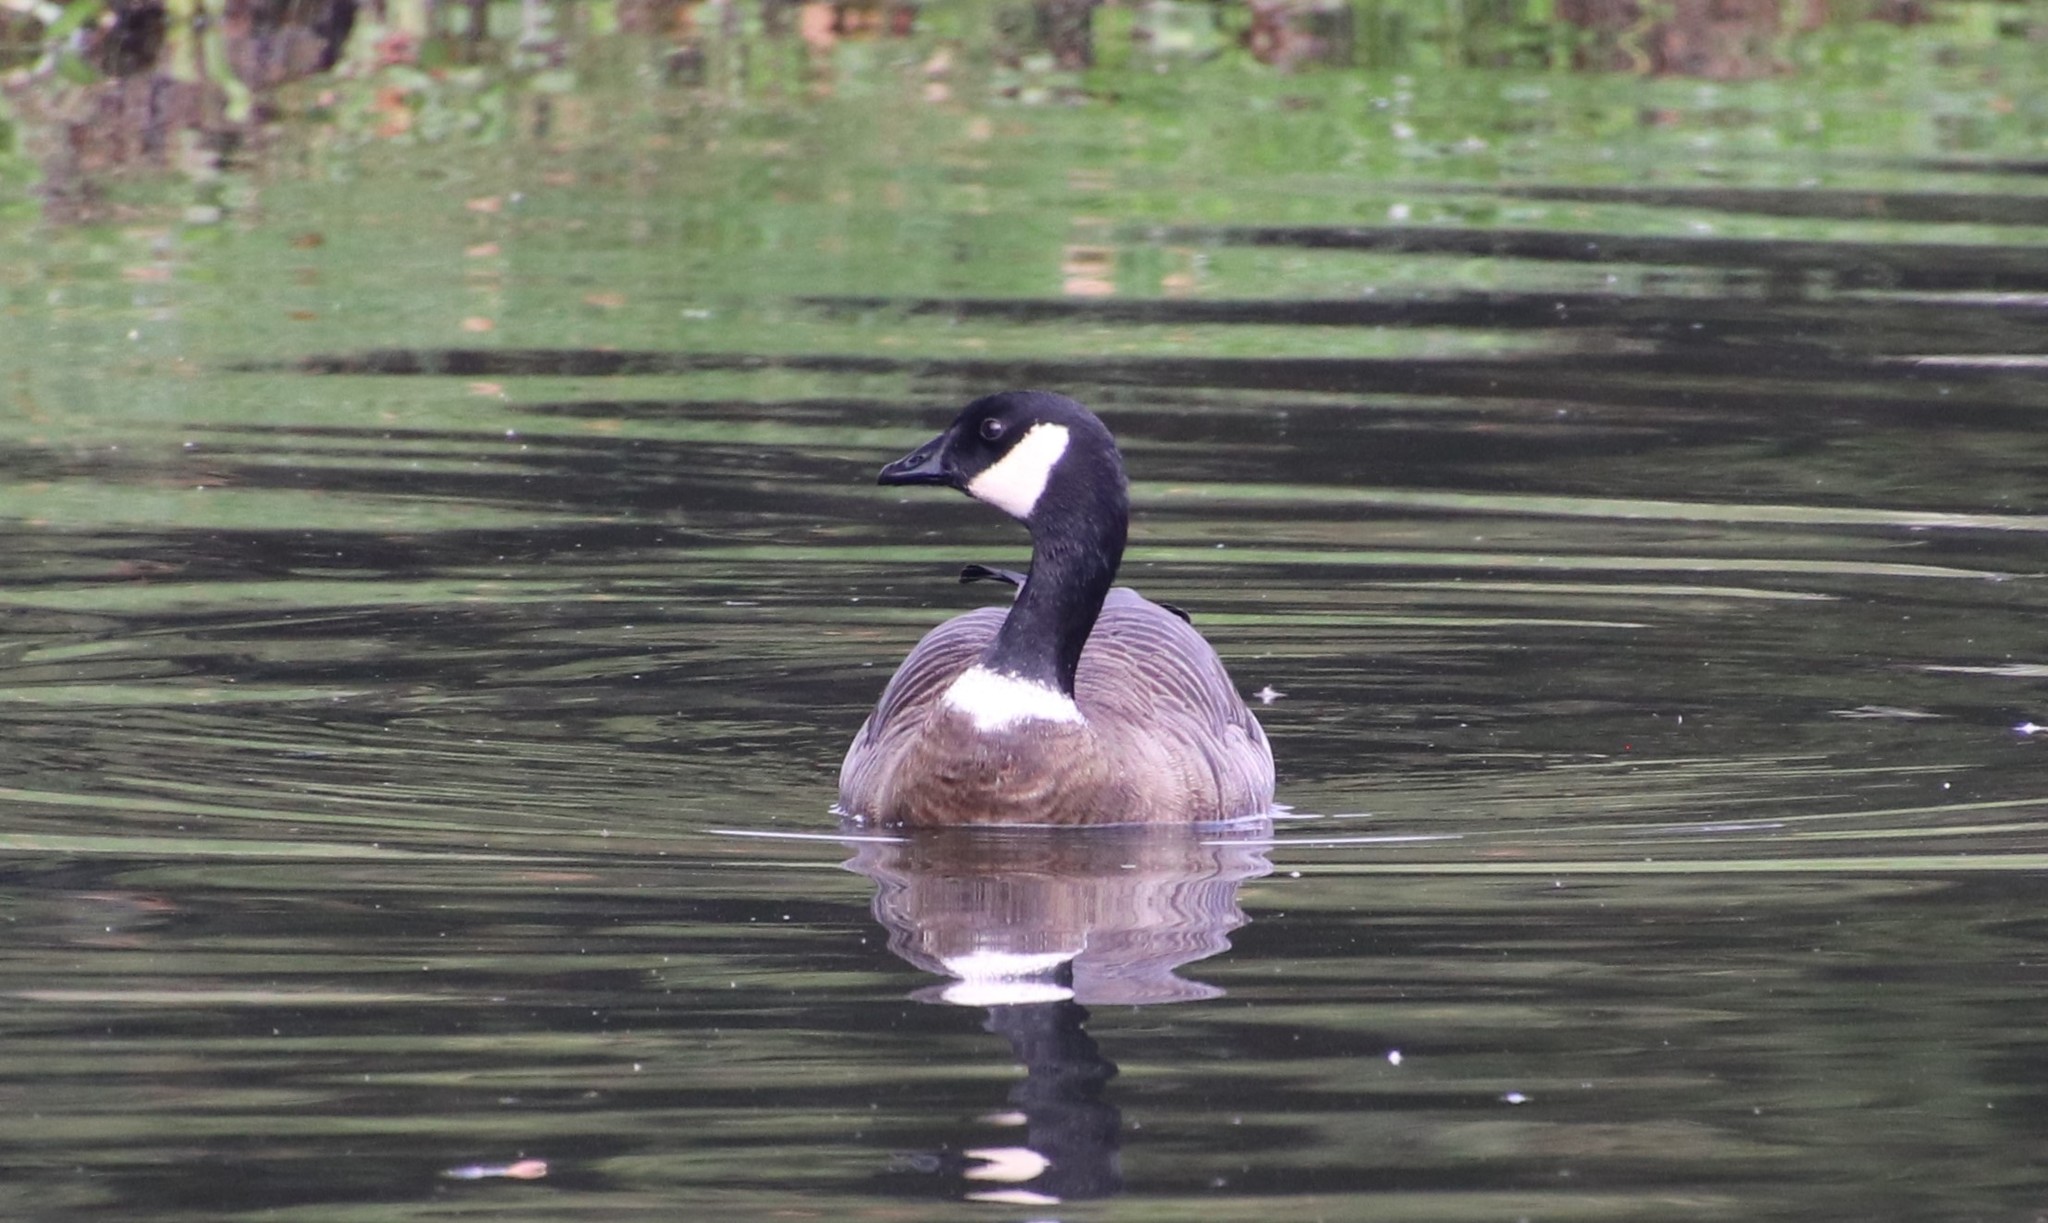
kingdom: Animalia
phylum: Chordata
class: Aves
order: Anseriformes
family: Anatidae
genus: Branta
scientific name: Branta hutchinsii
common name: Cackling goose
